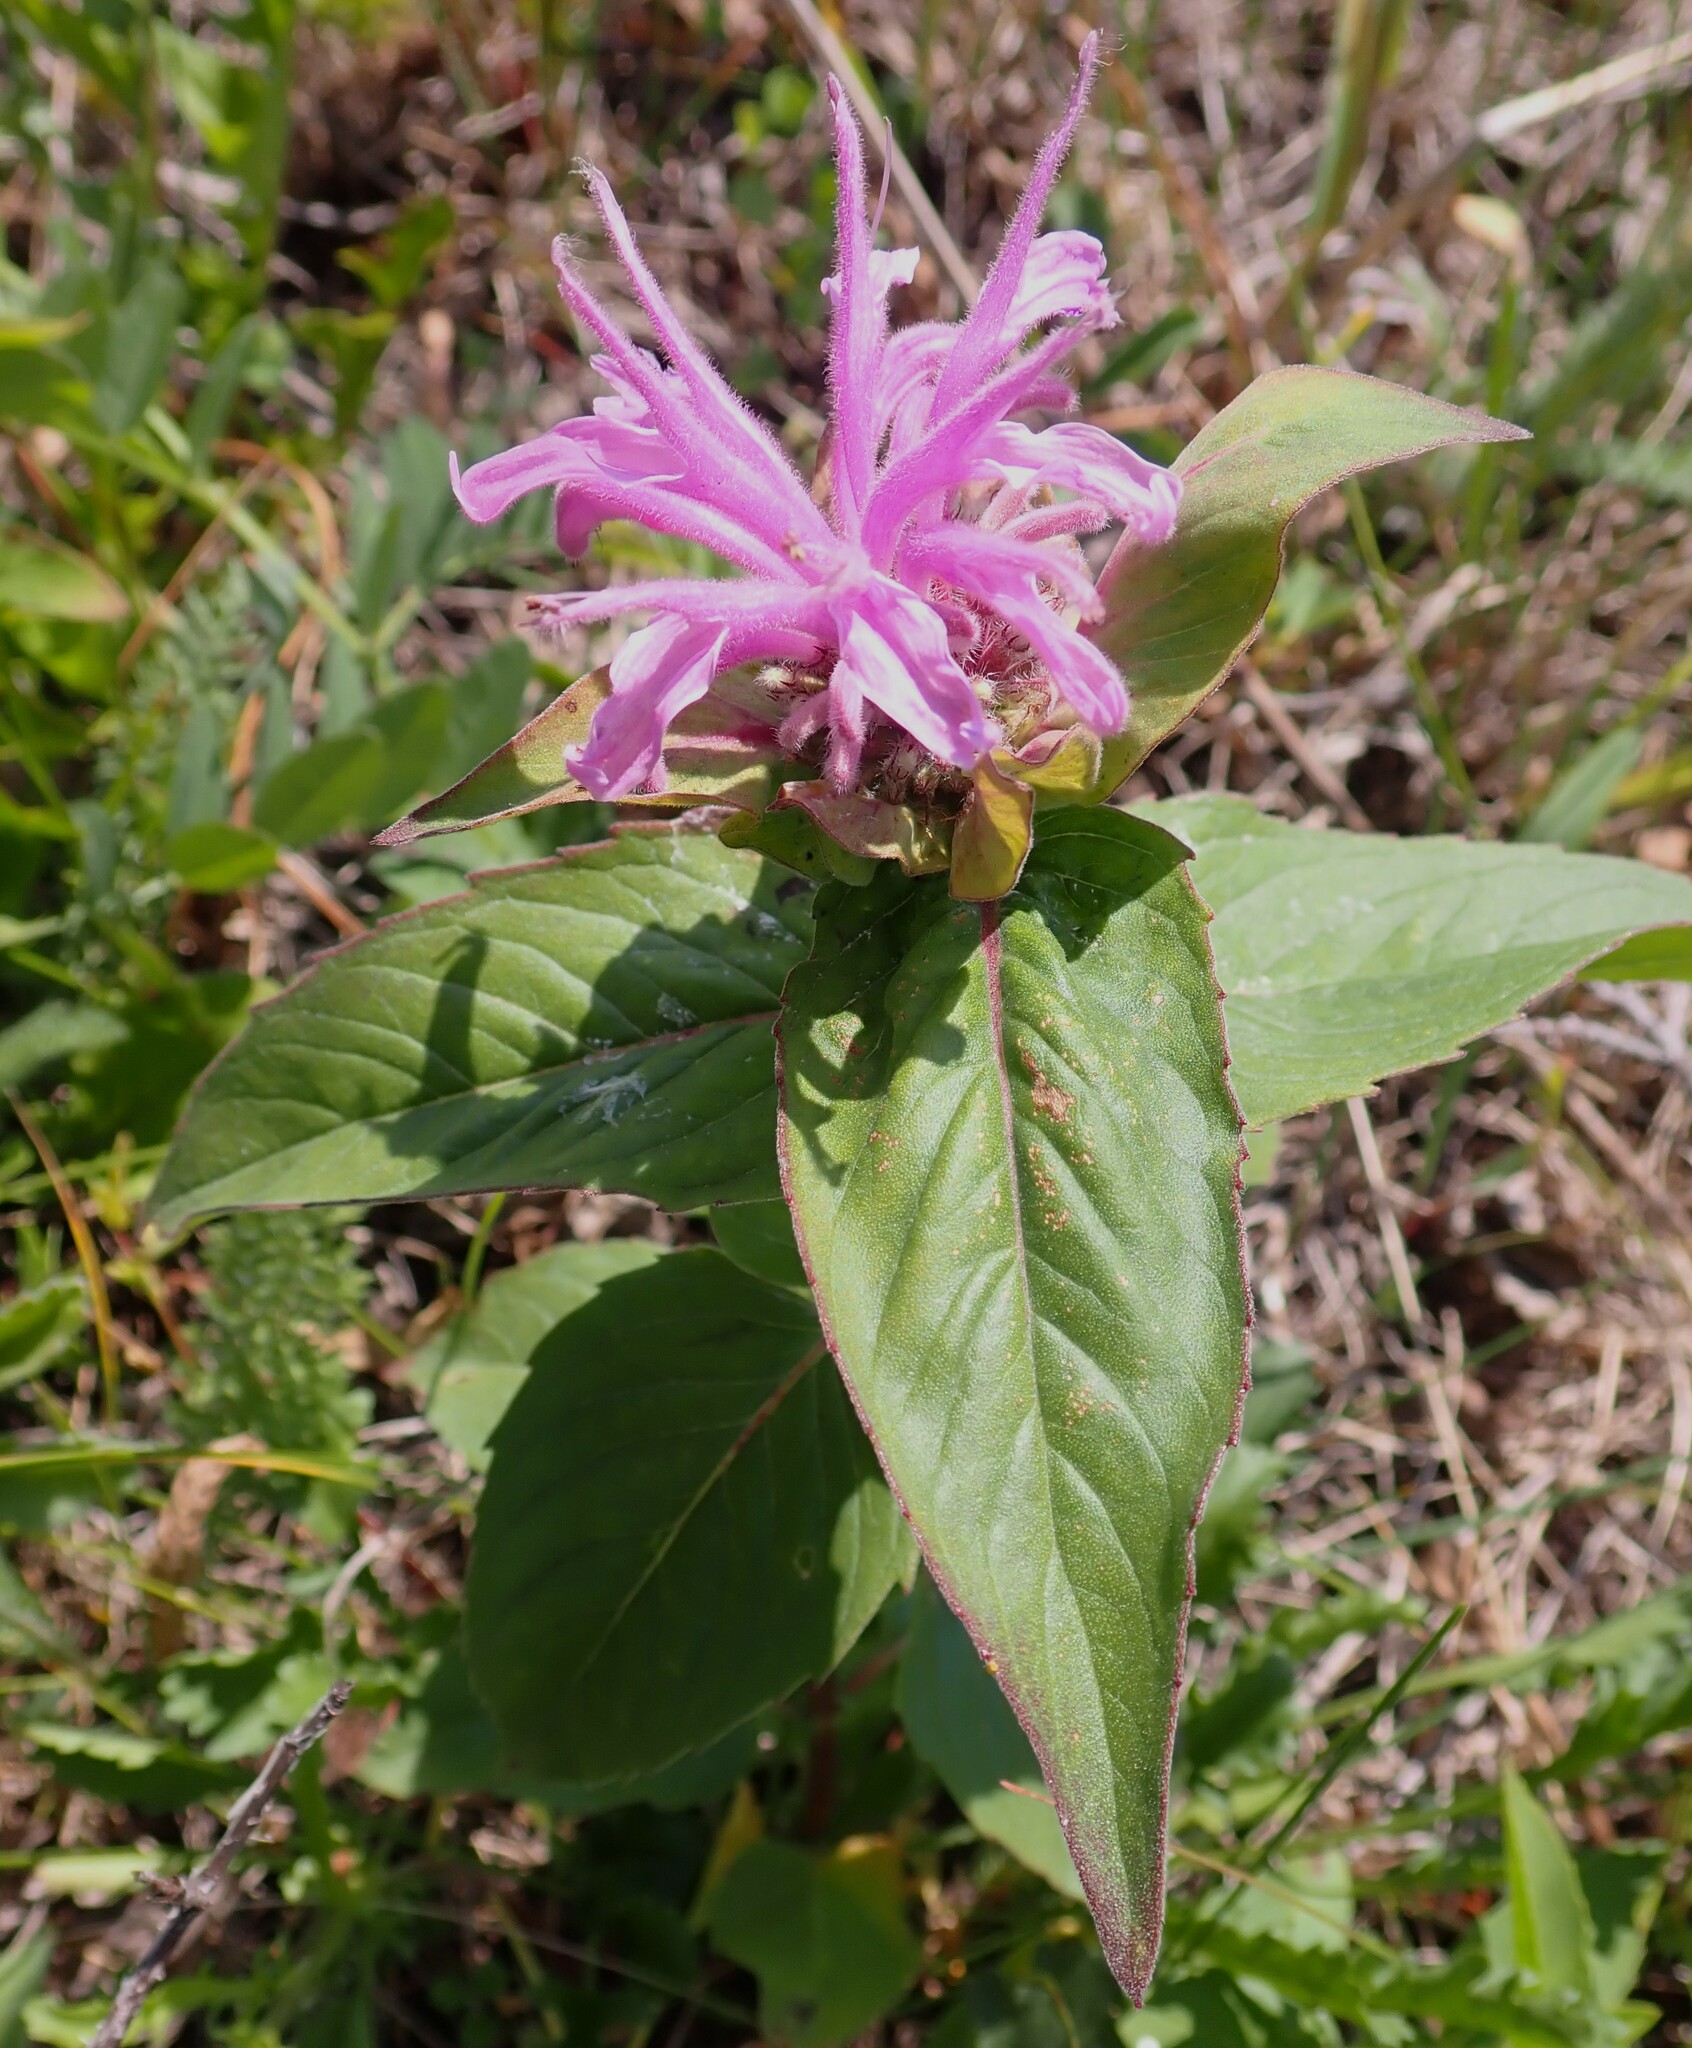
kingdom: Plantae
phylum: Tracheophyta
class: Magnoliopsida
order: Lamiales
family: Lamiaceae
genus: Monarda
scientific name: Monarda fistulosa
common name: Purple beebalm
